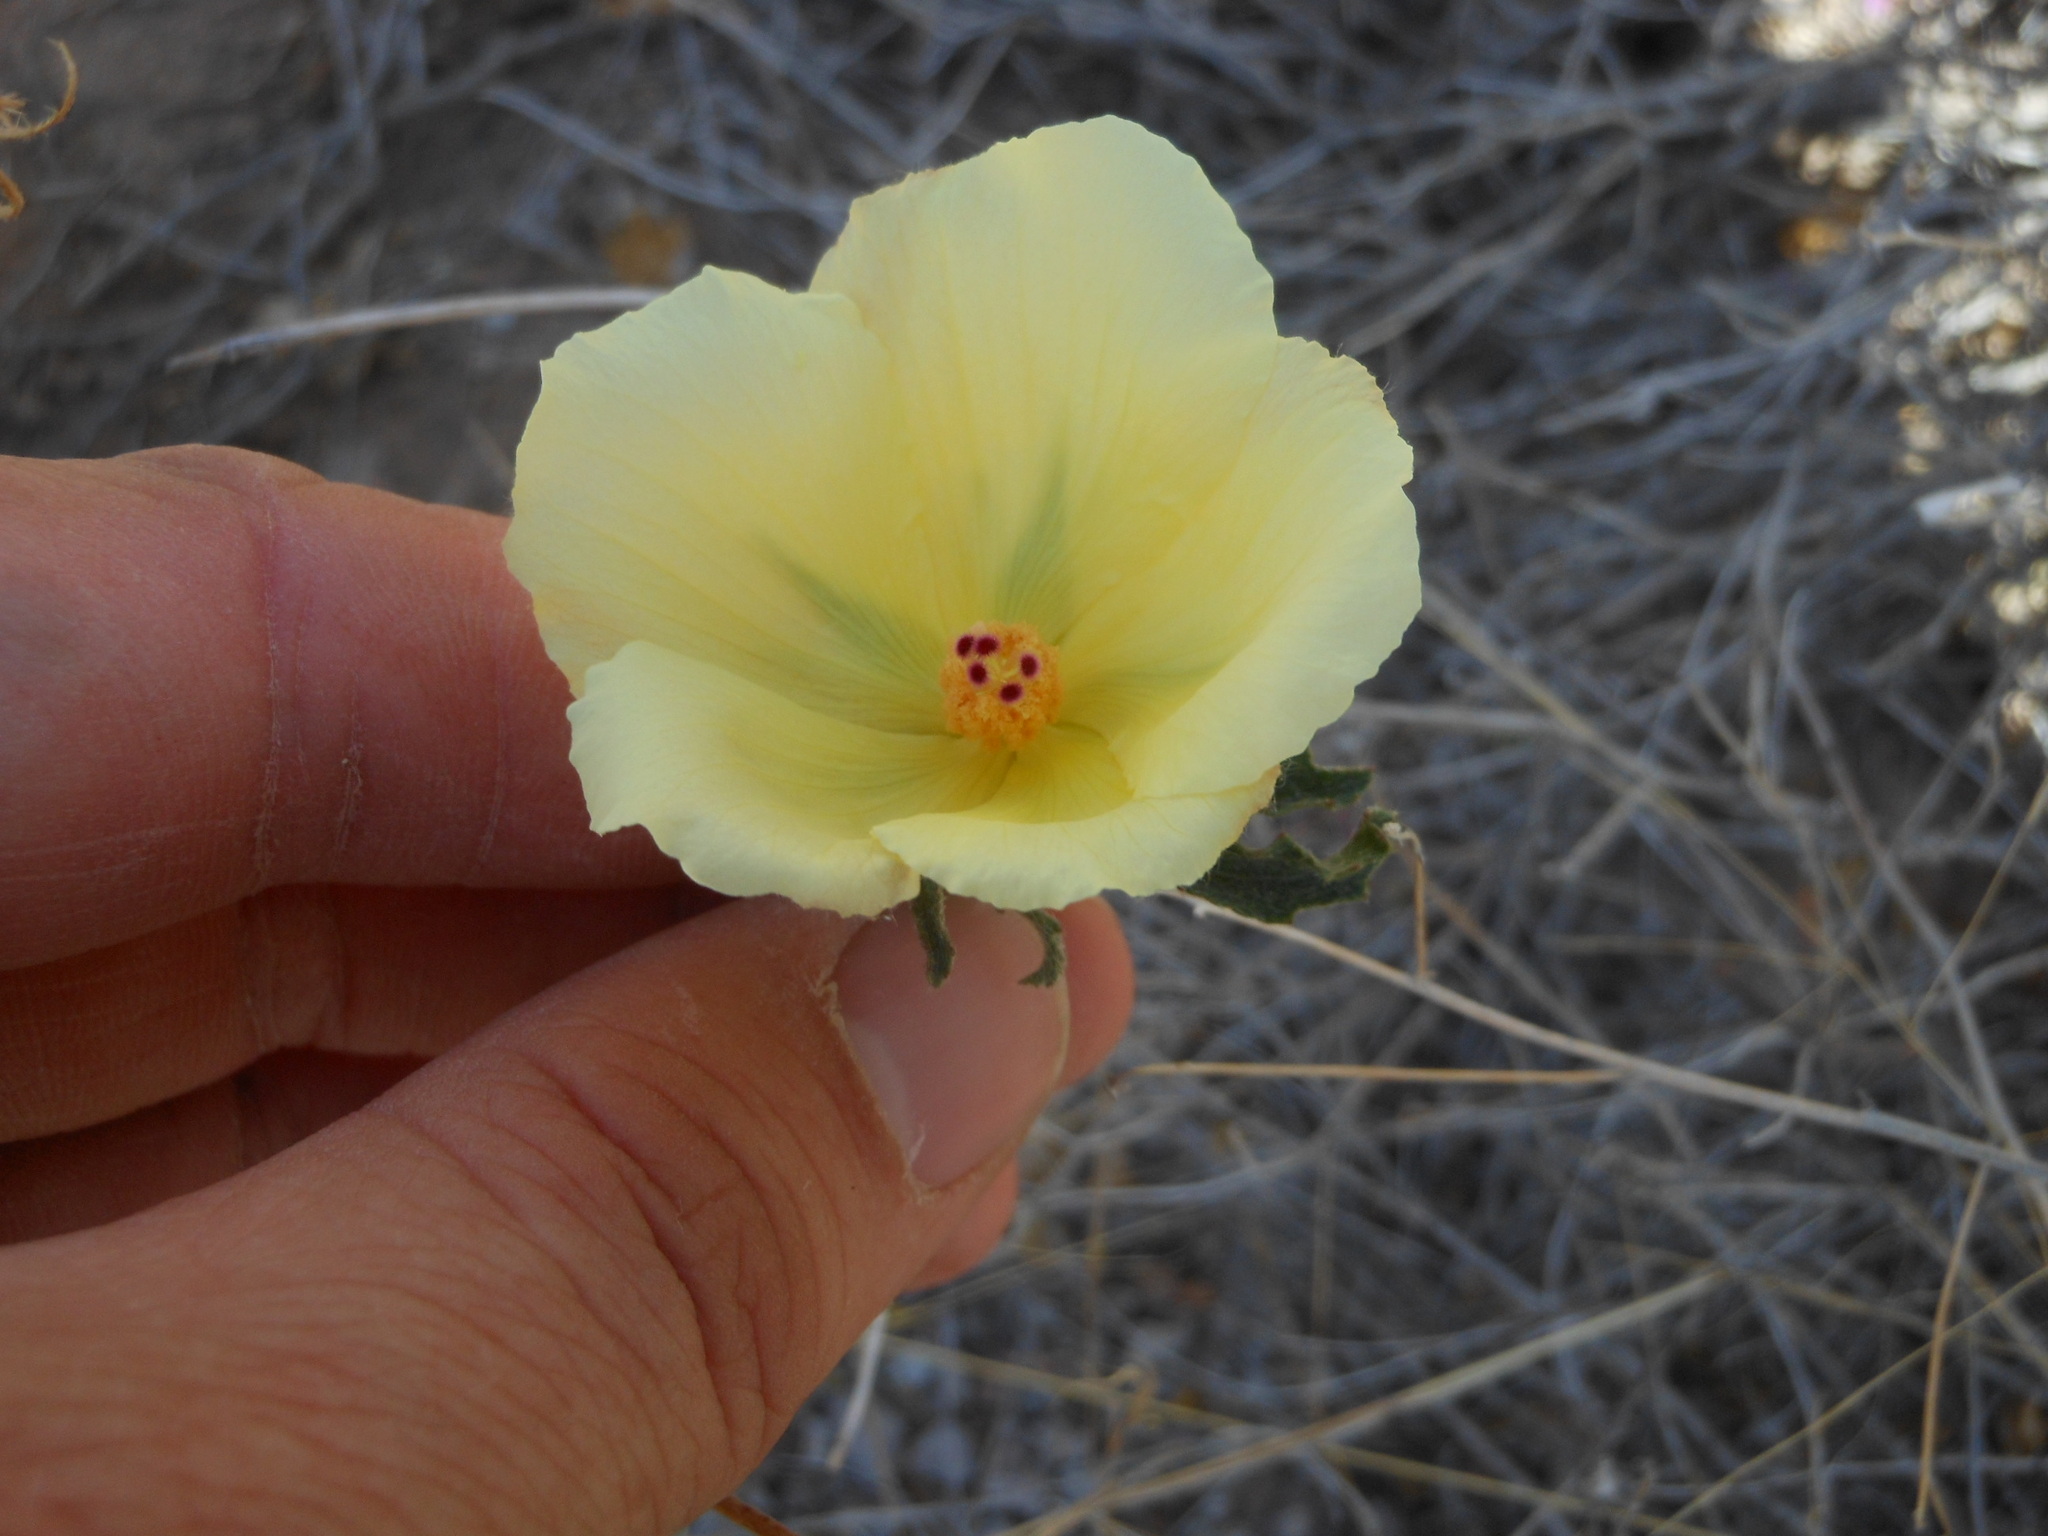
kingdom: Plantae
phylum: Tracheophyta
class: Magnoliopsida
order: Malvales
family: Malvaceae
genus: Hibiscus
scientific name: Hibiscus coulteri
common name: Desert rose-mallow
